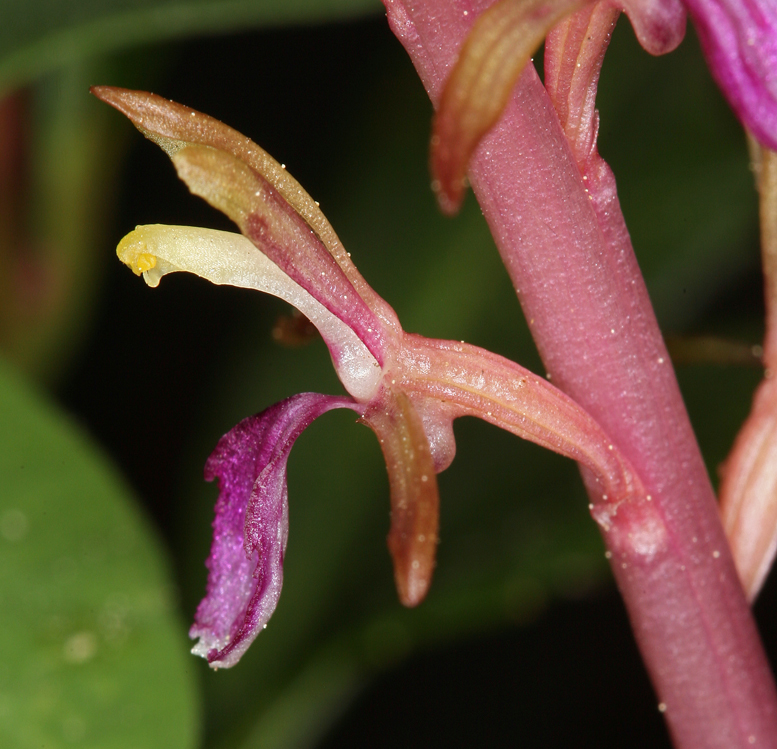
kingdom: Plantae
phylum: Tracheophyta
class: Liliopsida
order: Asparagales
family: Orchidaceae
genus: Corallorhiza
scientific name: Corallorhiza mertensiana
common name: Pacific coralroot
